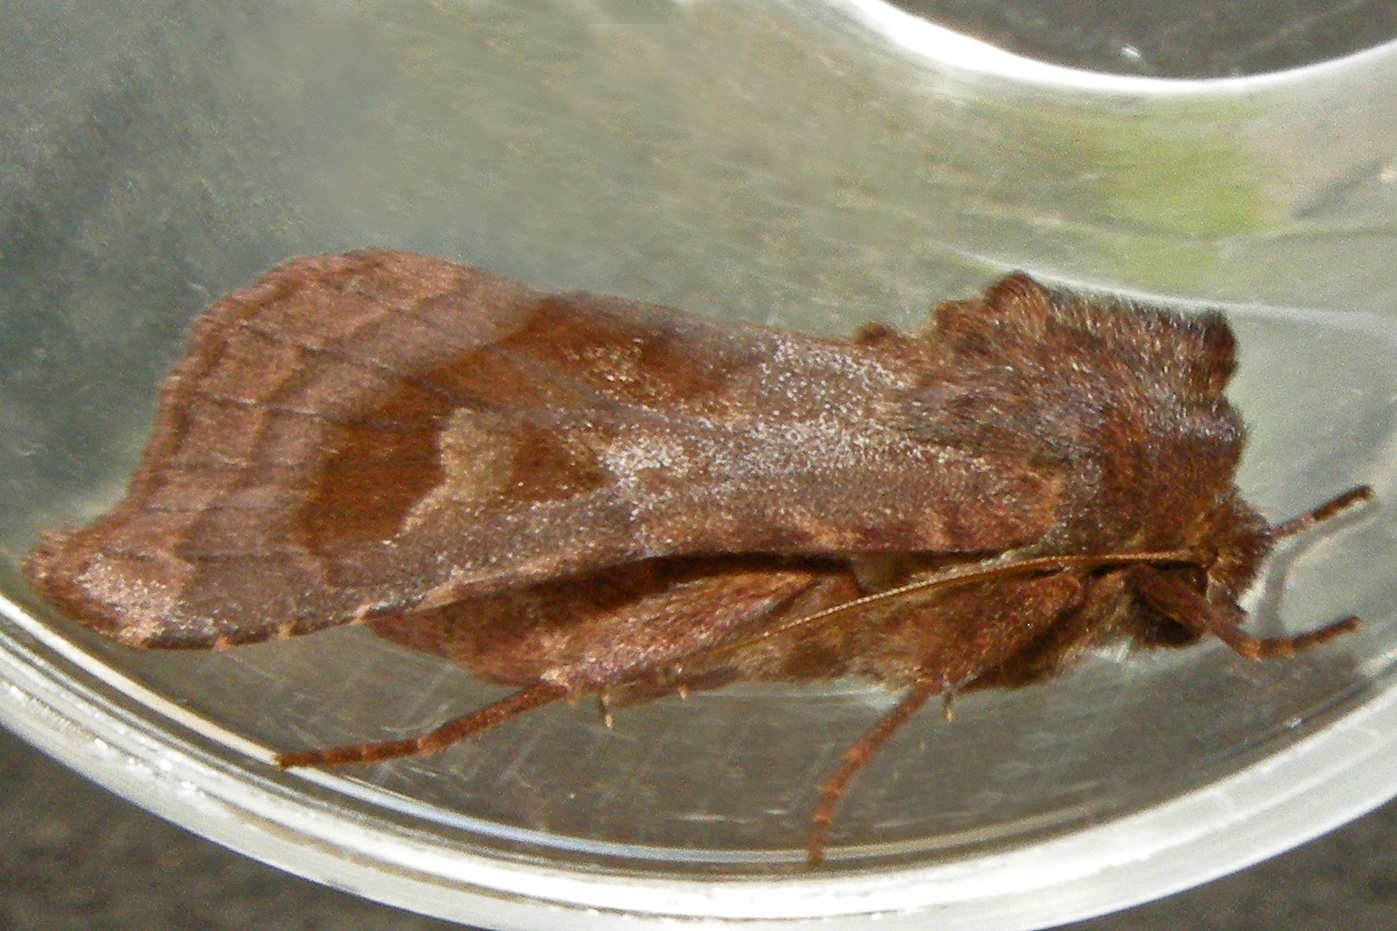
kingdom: Animalia
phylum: Arthropoda
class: Insecta
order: Lepidoptera
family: Noctuidae
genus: Nephelodes
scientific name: Nephelodes minians
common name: Bronzed cutworm
